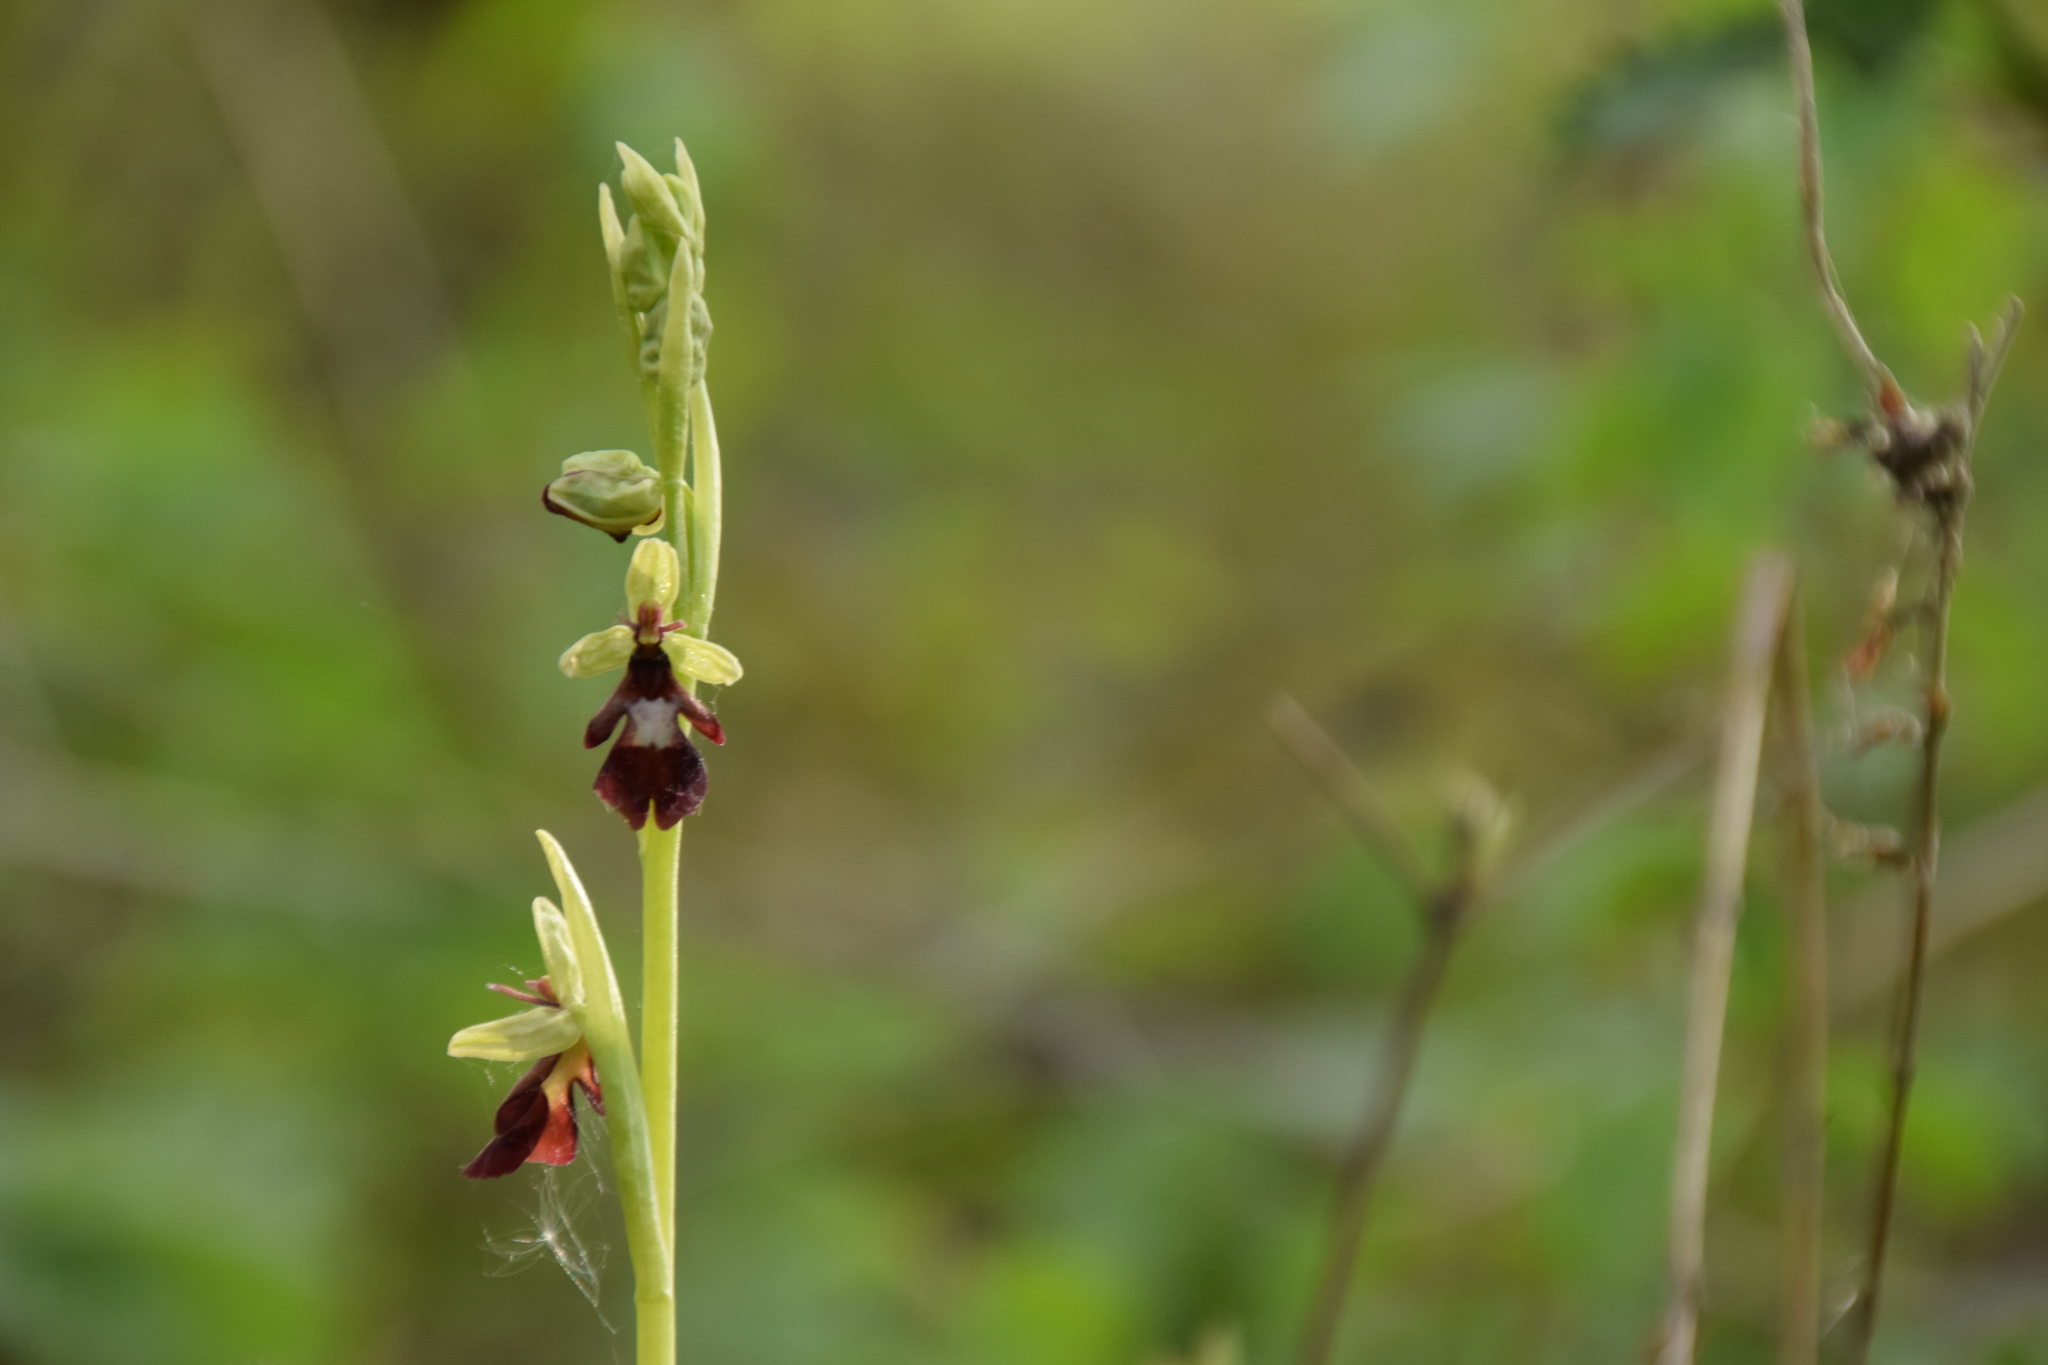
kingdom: Plantae
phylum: Tracheophyta
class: Liliopsida
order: Asparagales
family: Orchidaceae
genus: Ophrys
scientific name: Ophrys insectifera
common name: Fly orchid
